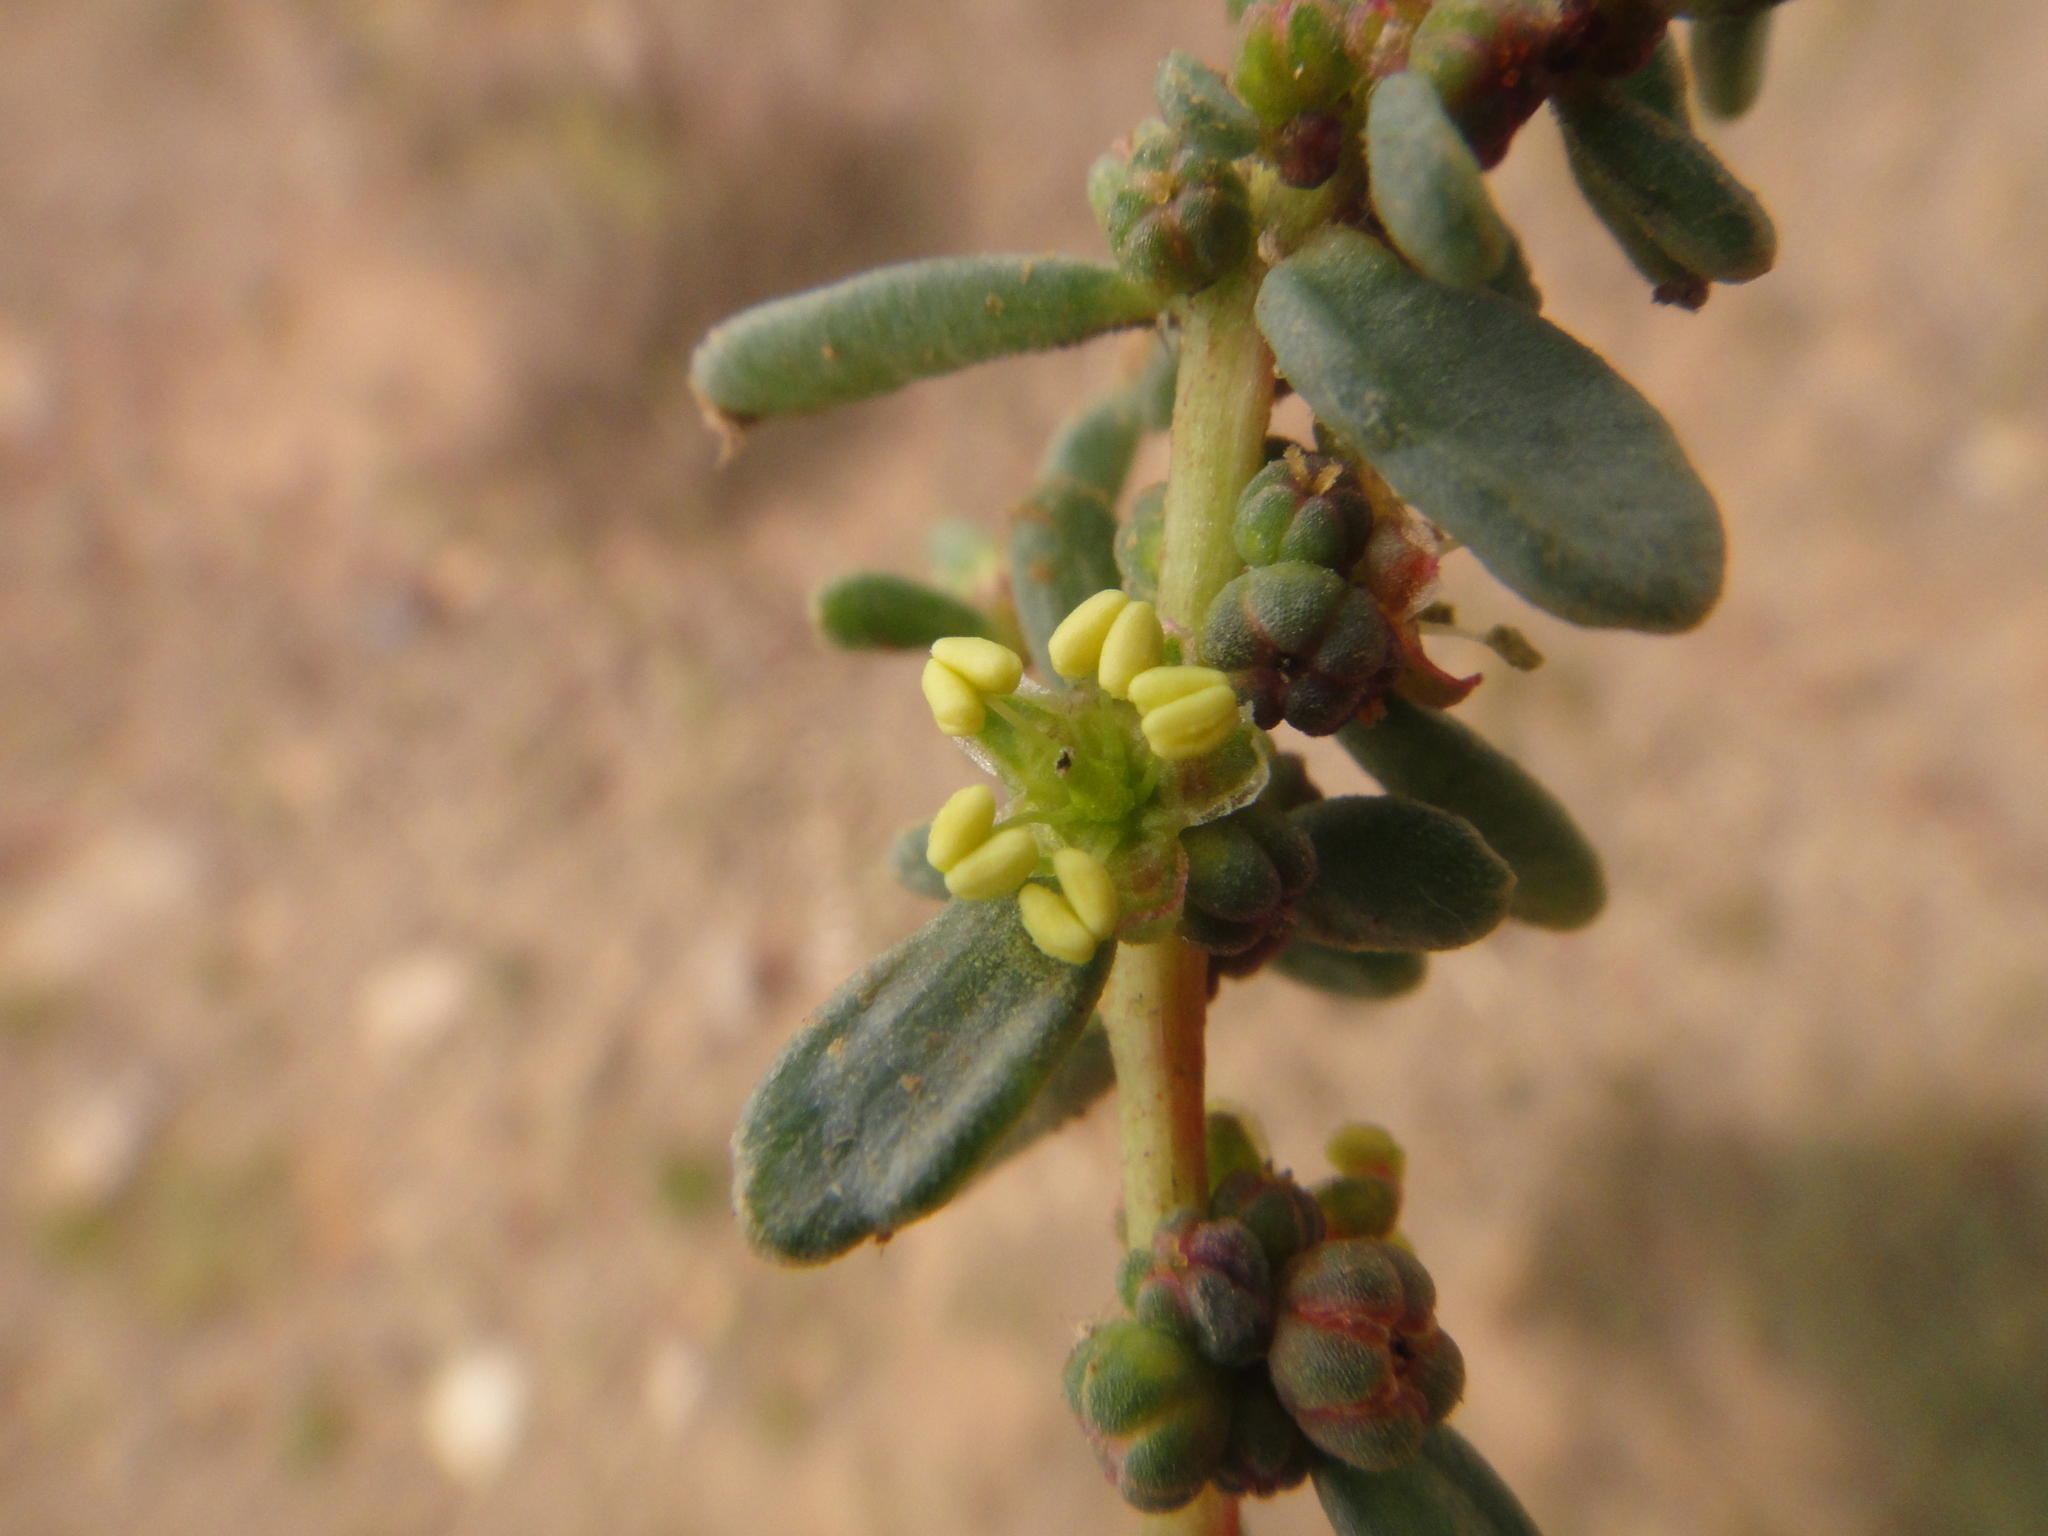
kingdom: Plantae
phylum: Tracheophyta
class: Magnoliopsida
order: Caryophyllales
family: Amaranthaceae
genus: Suaeda
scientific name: Suaeda vermiculata
